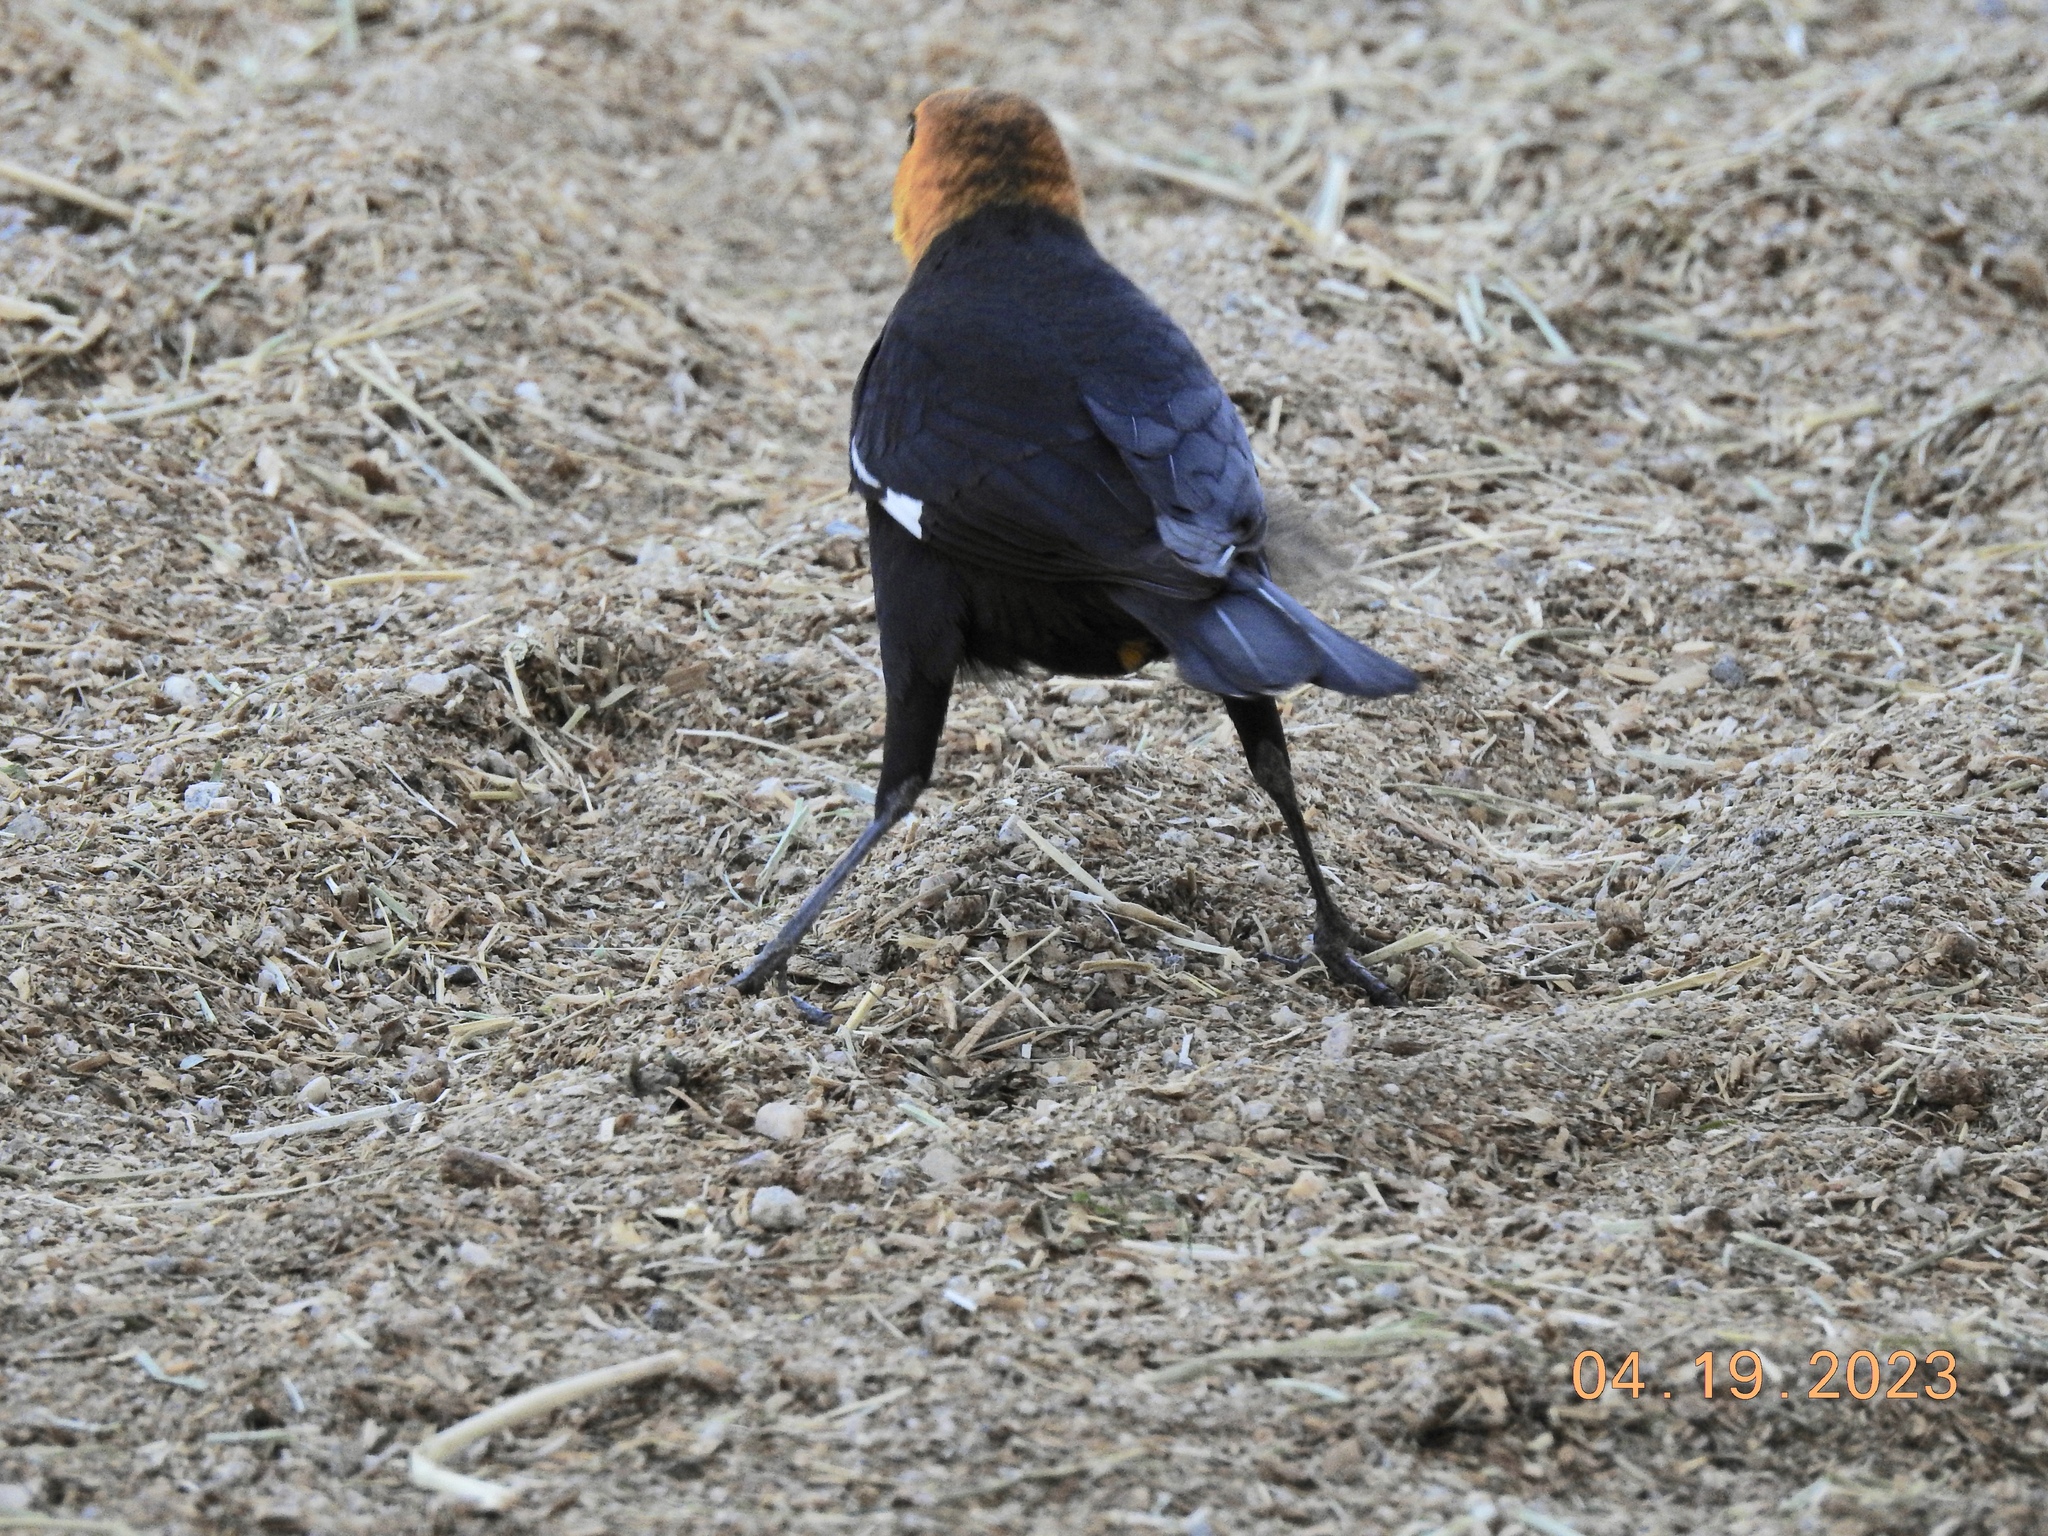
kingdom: Animalia
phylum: Chordata
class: Aves
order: Passeriformes
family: Icteridae
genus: Xanthocephalus
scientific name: Xanthocephalus xanthocephalus
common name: Yellow-headed blackbird
